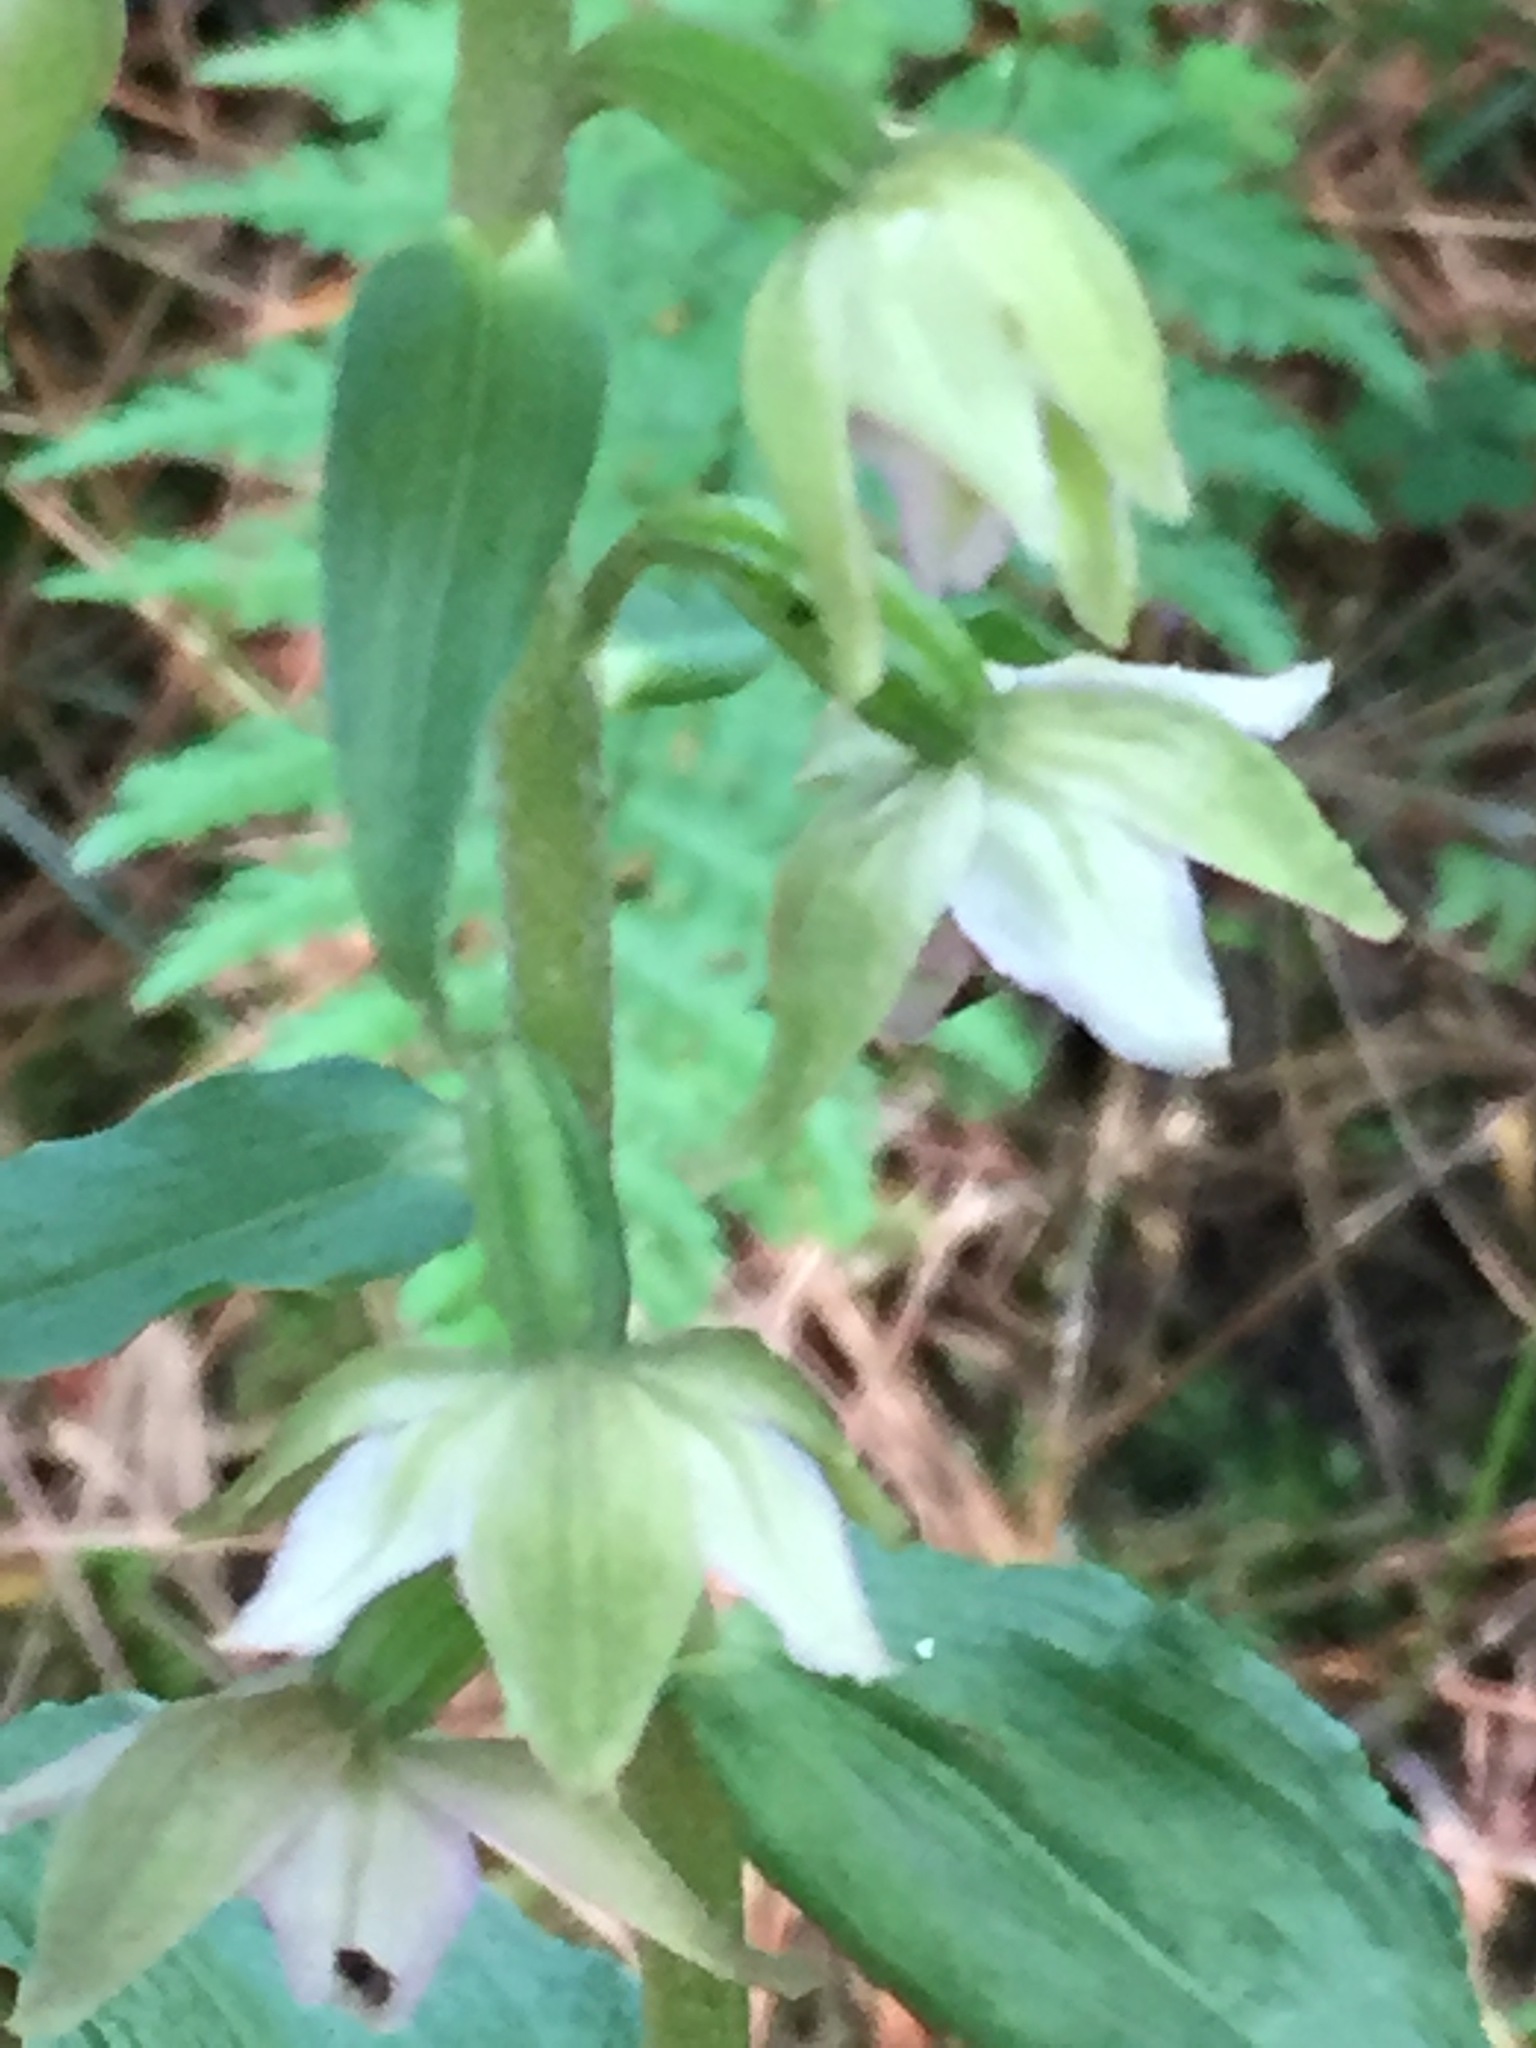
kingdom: Plantae
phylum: Tracheophyta
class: Liliopsida
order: Asparagales
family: Orchidaceae
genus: Epipactis
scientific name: Epipactis helleborine
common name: Broad-leaved helleborine
